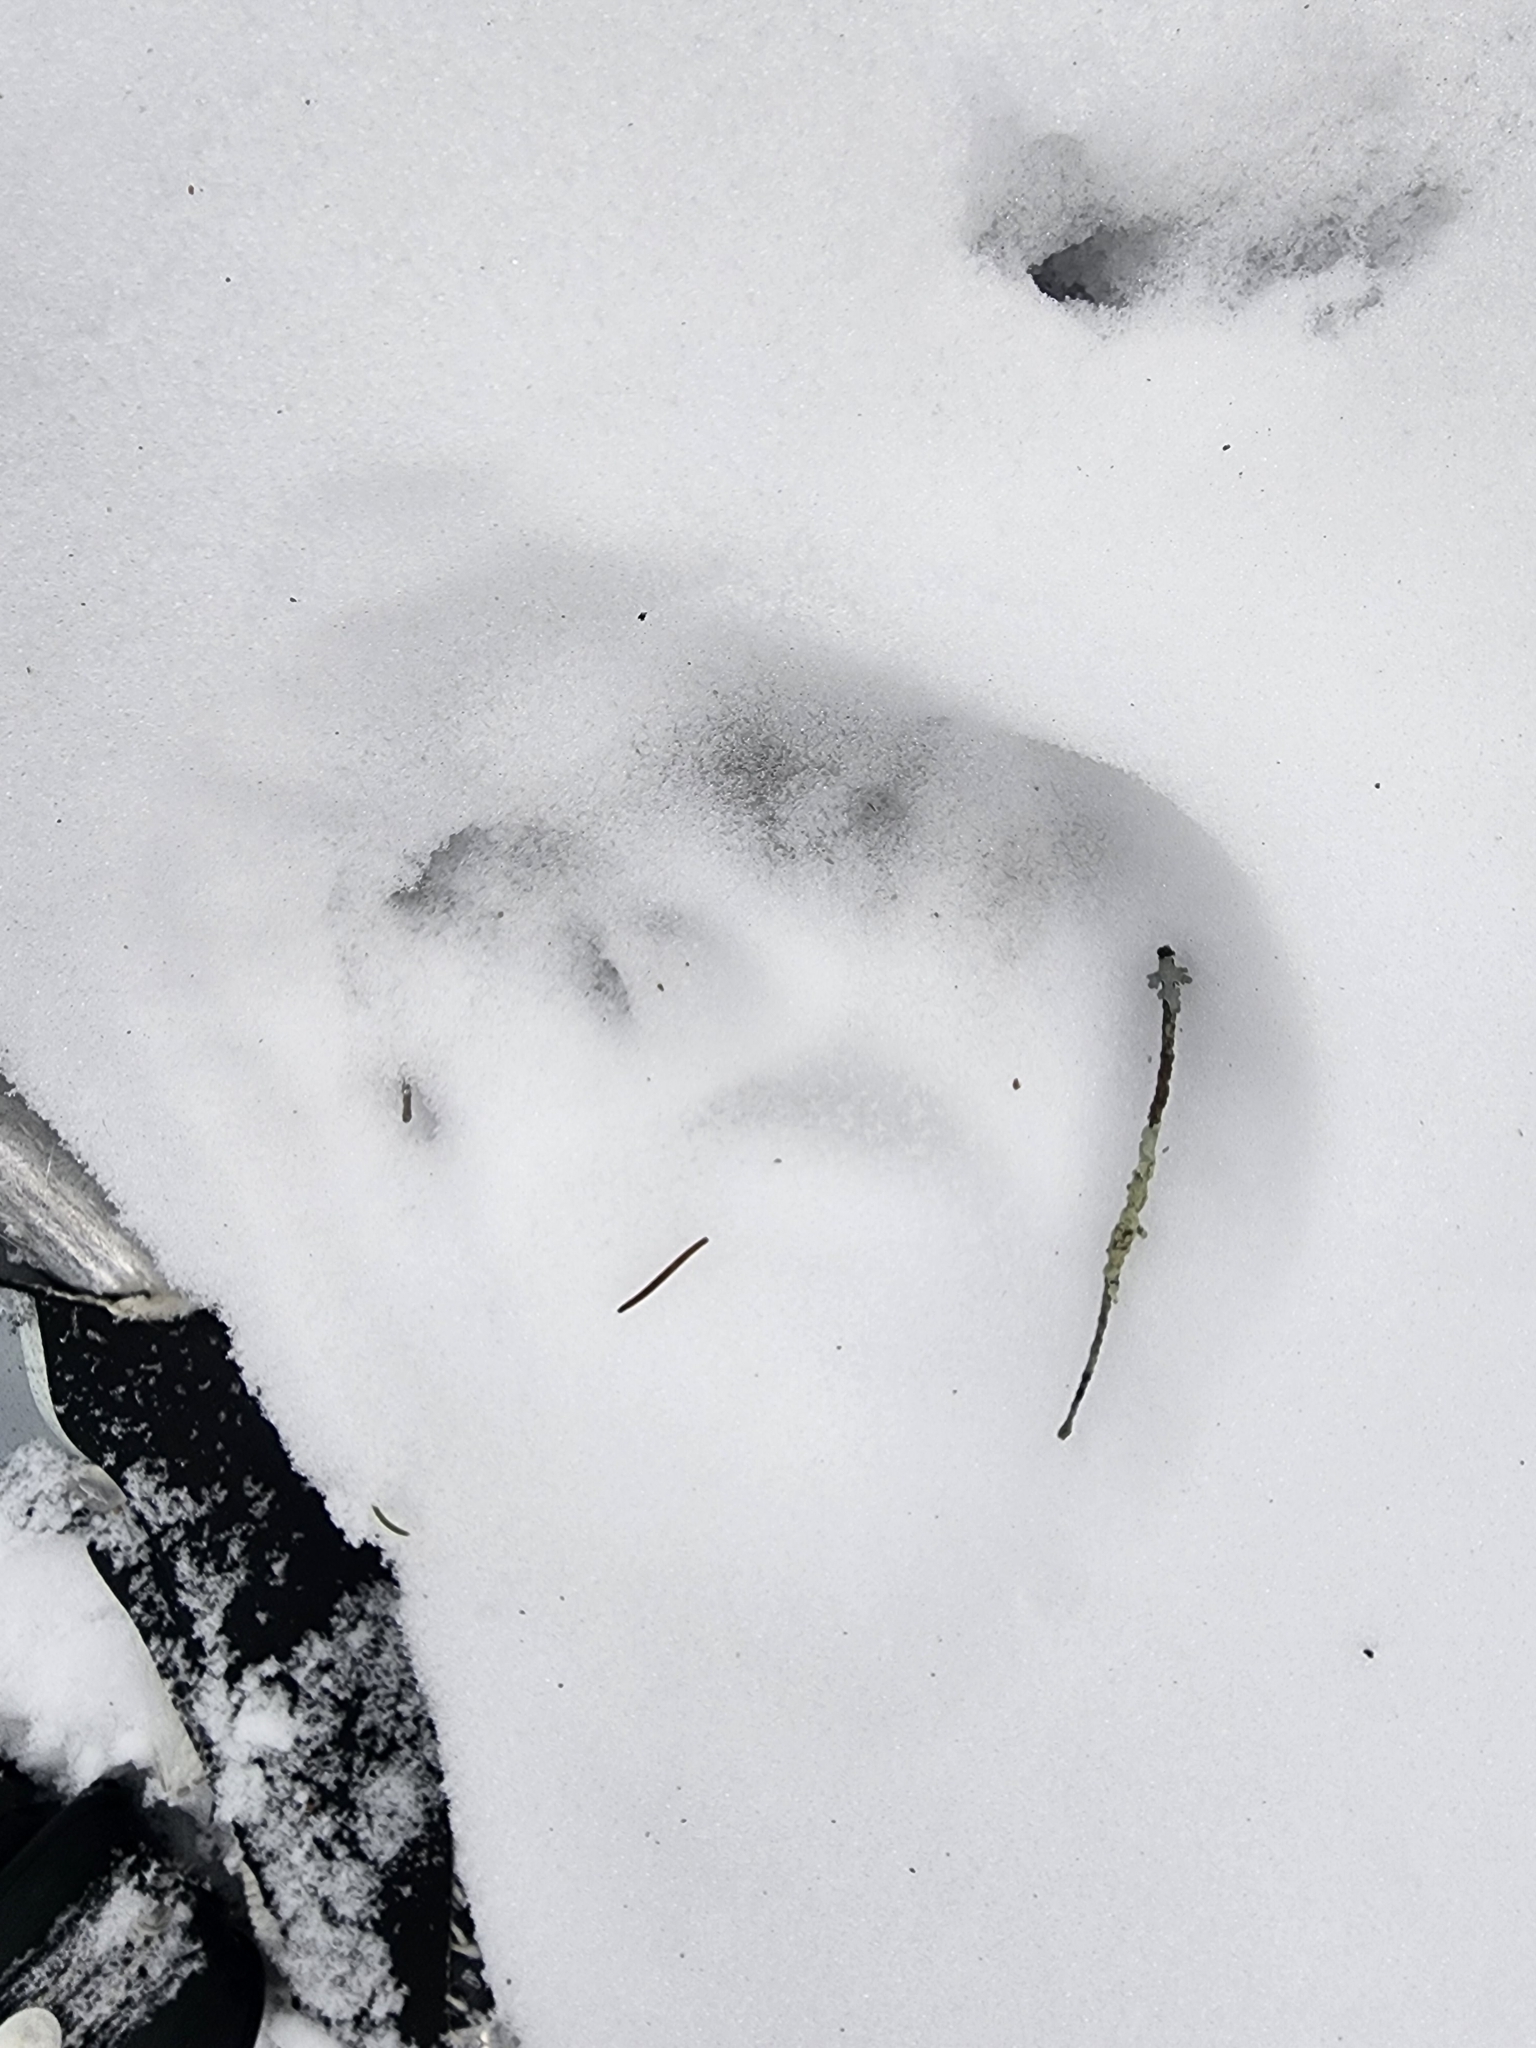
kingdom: Animalia
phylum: Chordata
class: Mammalia
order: Carnivora
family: Felidae
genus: Lynx
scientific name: Lynx canadensis
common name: Canadian lynx
